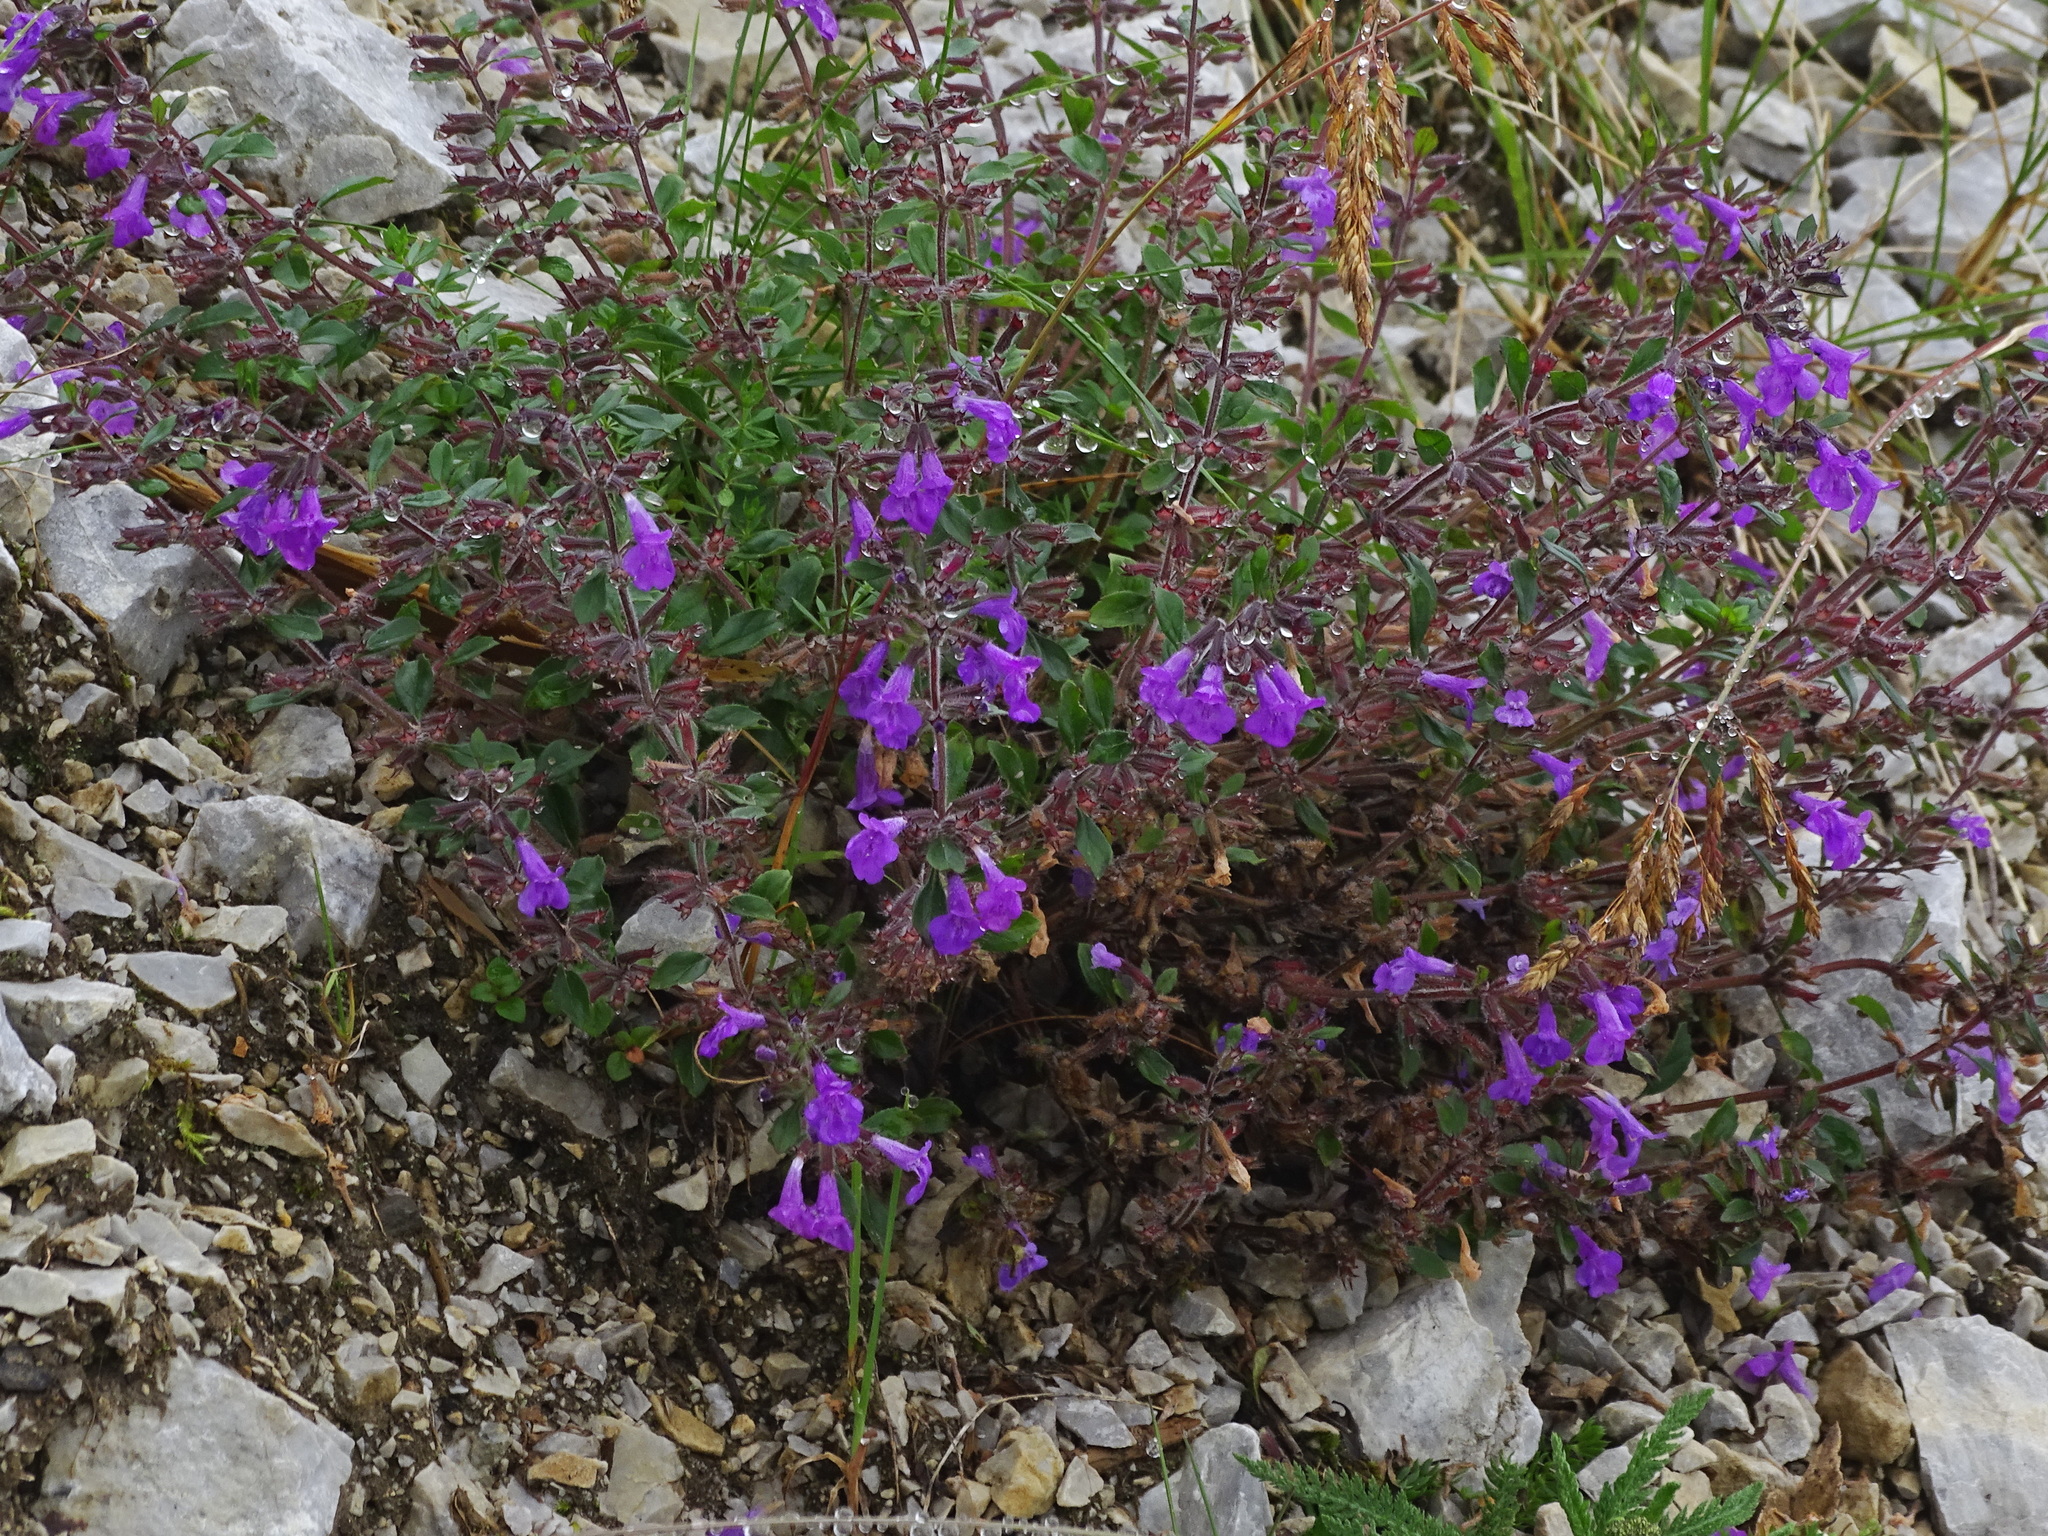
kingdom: Plantae
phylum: Tracheophyta
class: Magnoliopsida
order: Lamiales
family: Lamiaceae
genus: Clinopodium
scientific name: Clinopodium alpinum
